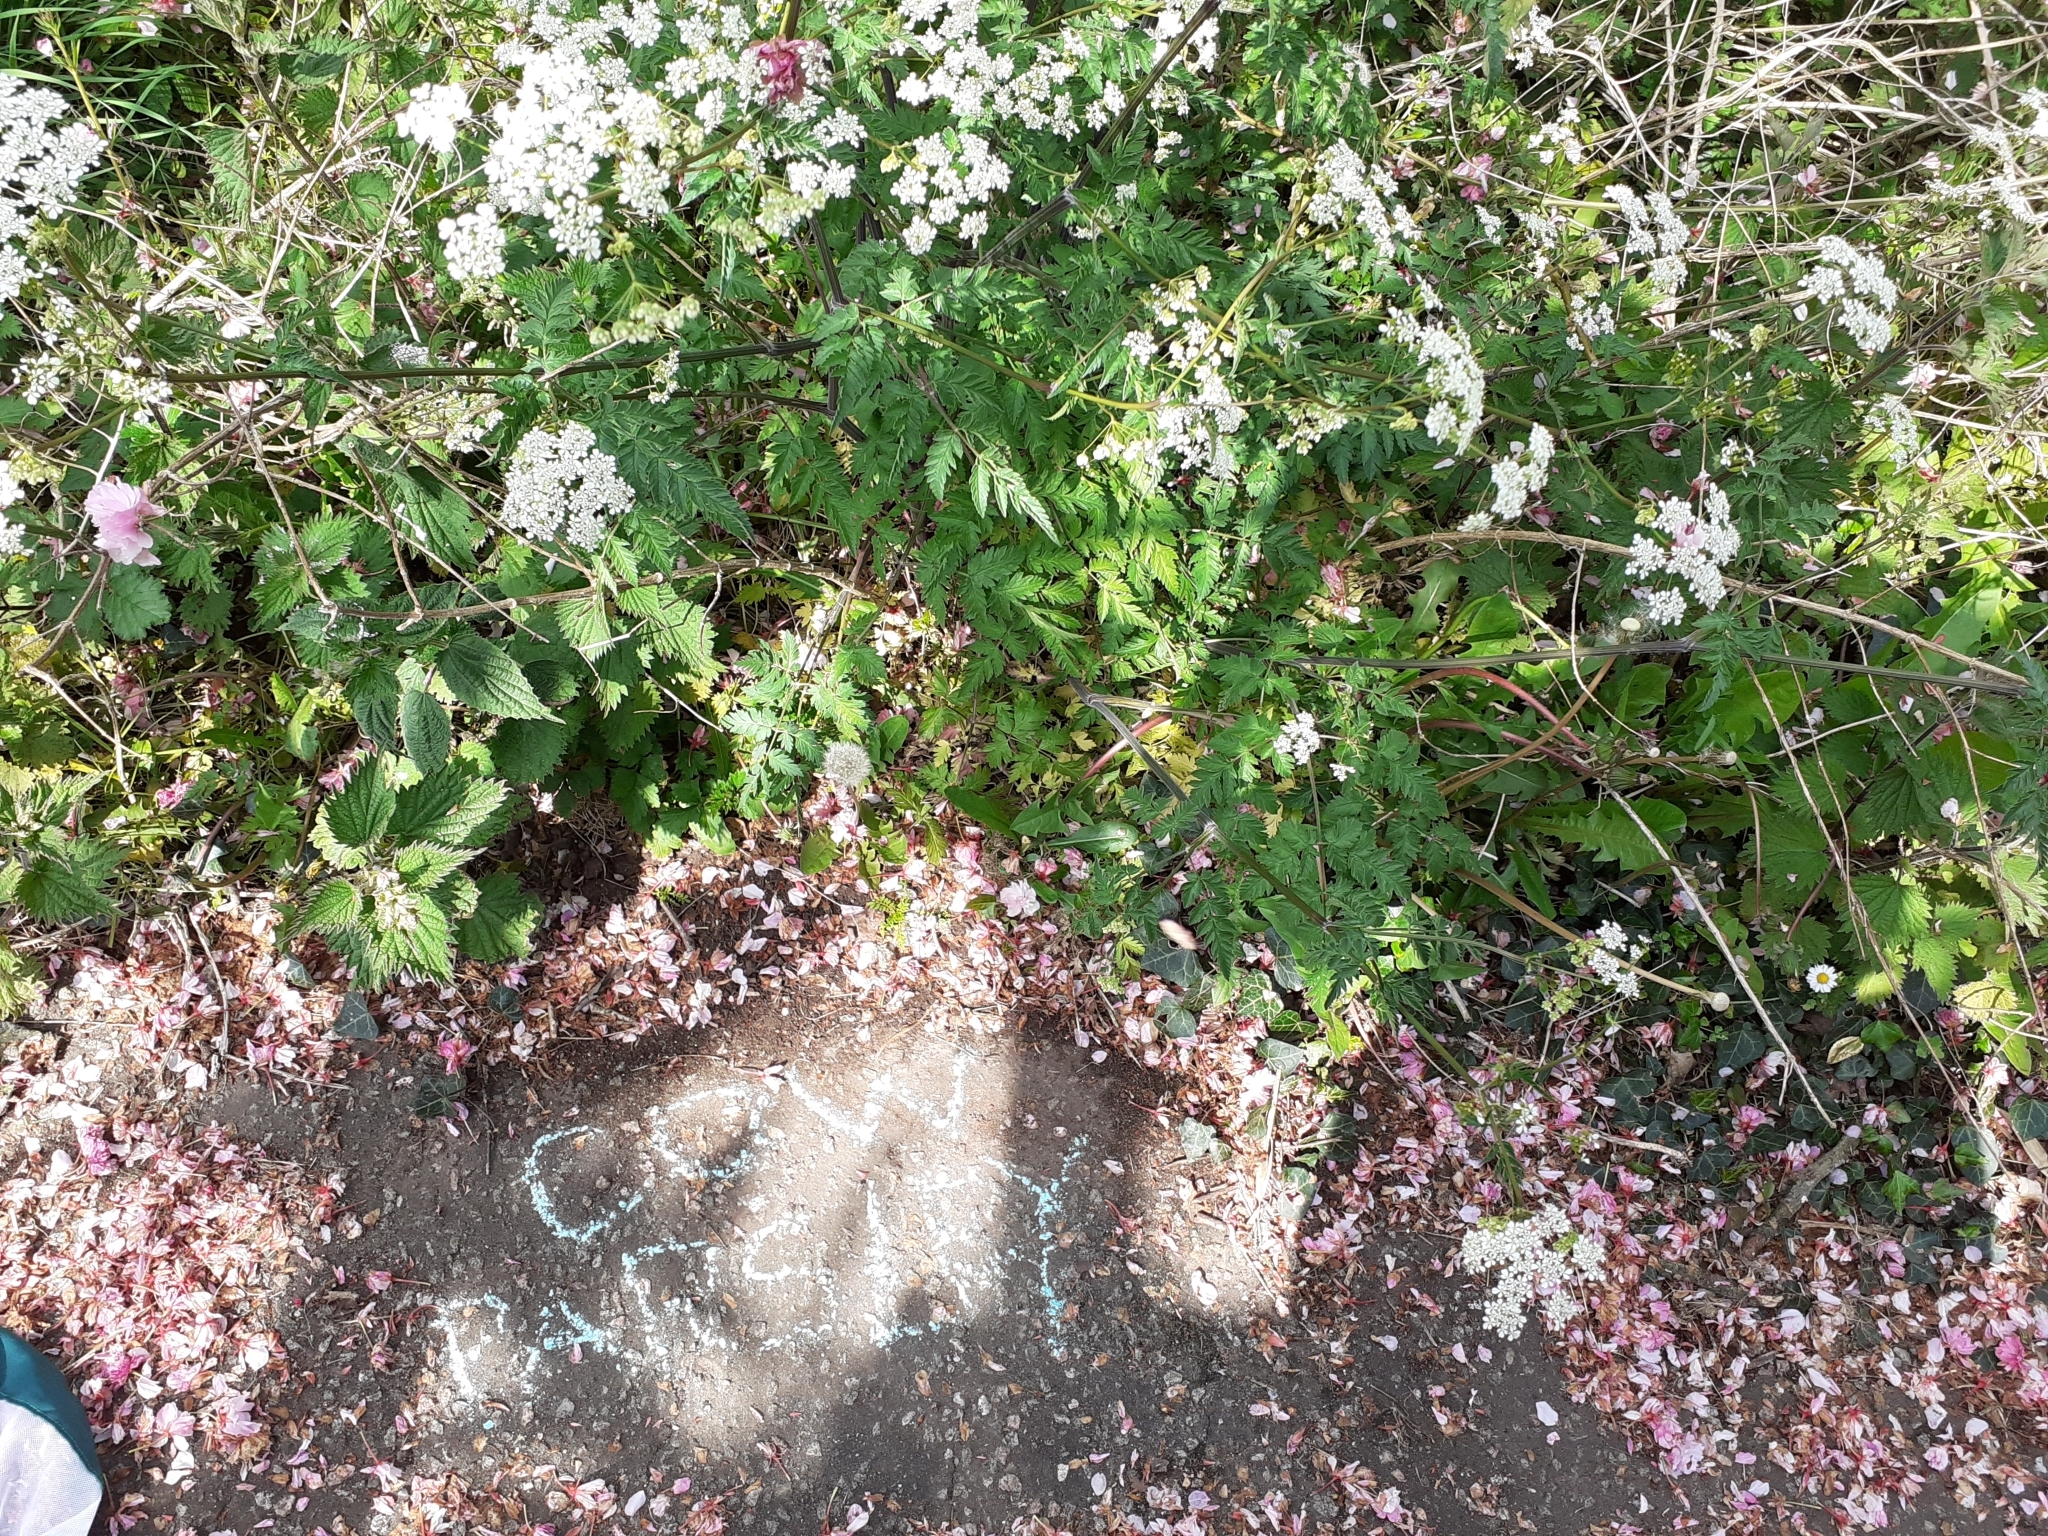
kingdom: Plantae
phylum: Tracheophyta
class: Magnoliopsida
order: Apiales
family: Apiaceae
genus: Anthriscus
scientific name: Anthriscus sylvestris
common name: Cow parsley
